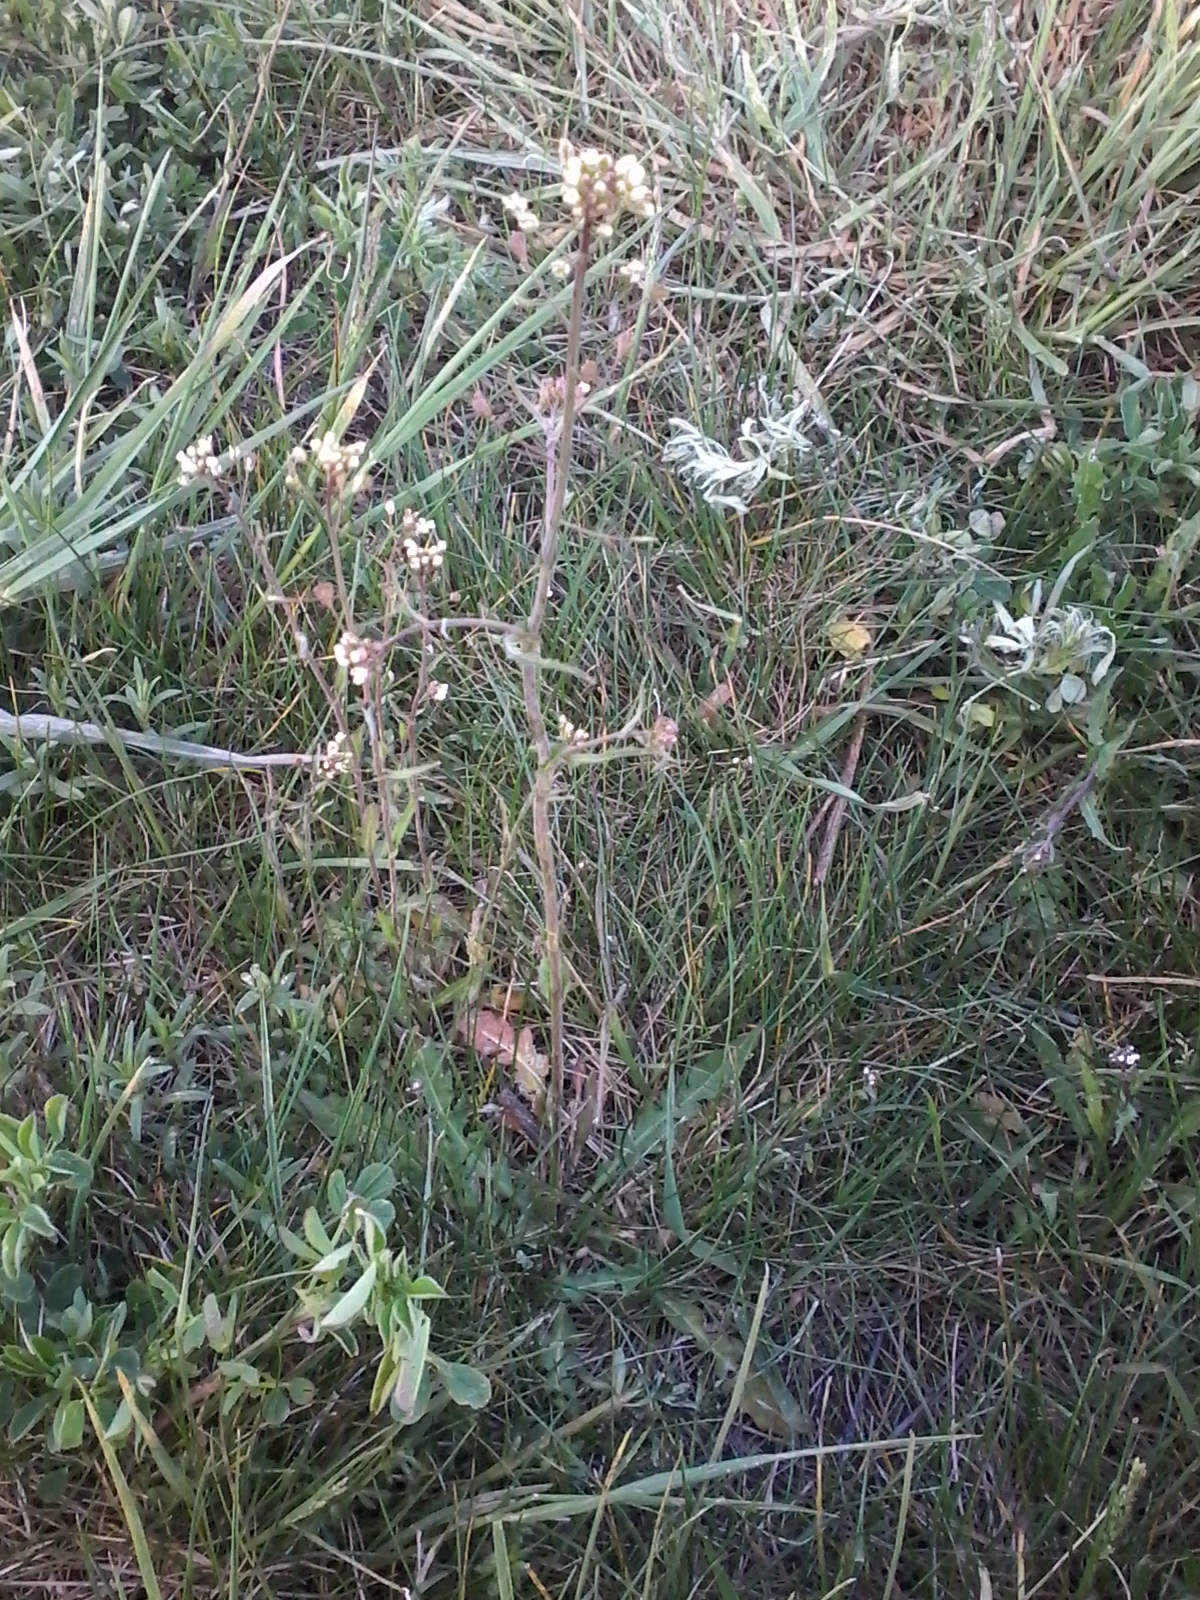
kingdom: Plantae
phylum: Tracheophyta
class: Magnoliopsida
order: Brassicales
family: Brassicaceae
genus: Capsella
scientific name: Capsella bursa-pastoris
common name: Shepherd's purse
